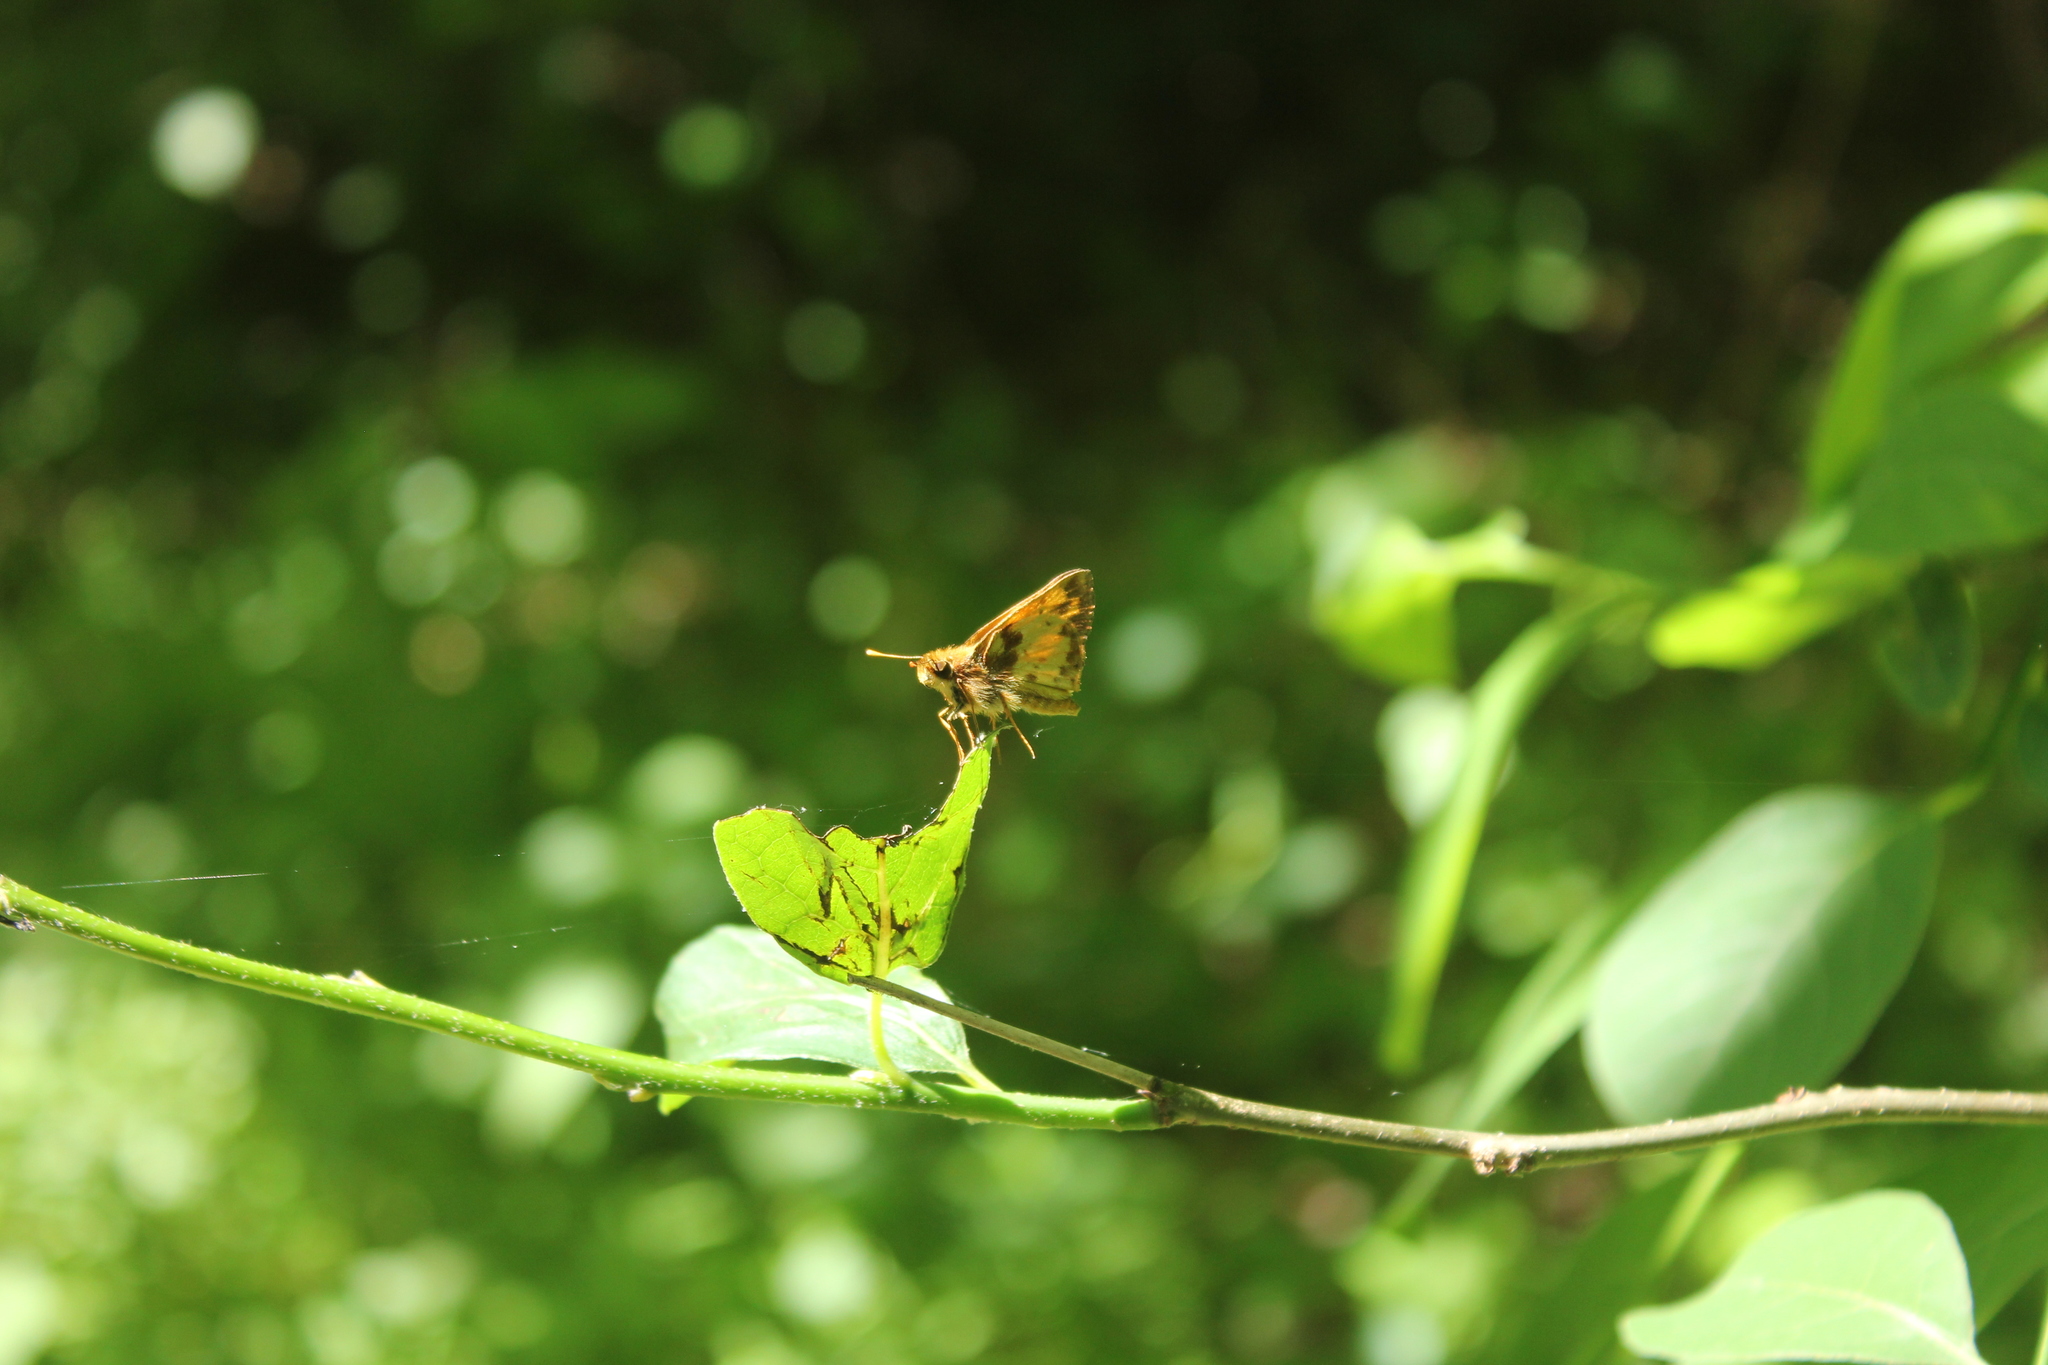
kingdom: Animalia
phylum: Arthropoda
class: Insecta
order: Lepidoptera
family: Hesperiidae
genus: Lon
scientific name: Lon zabulon
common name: Zabulon skipper
